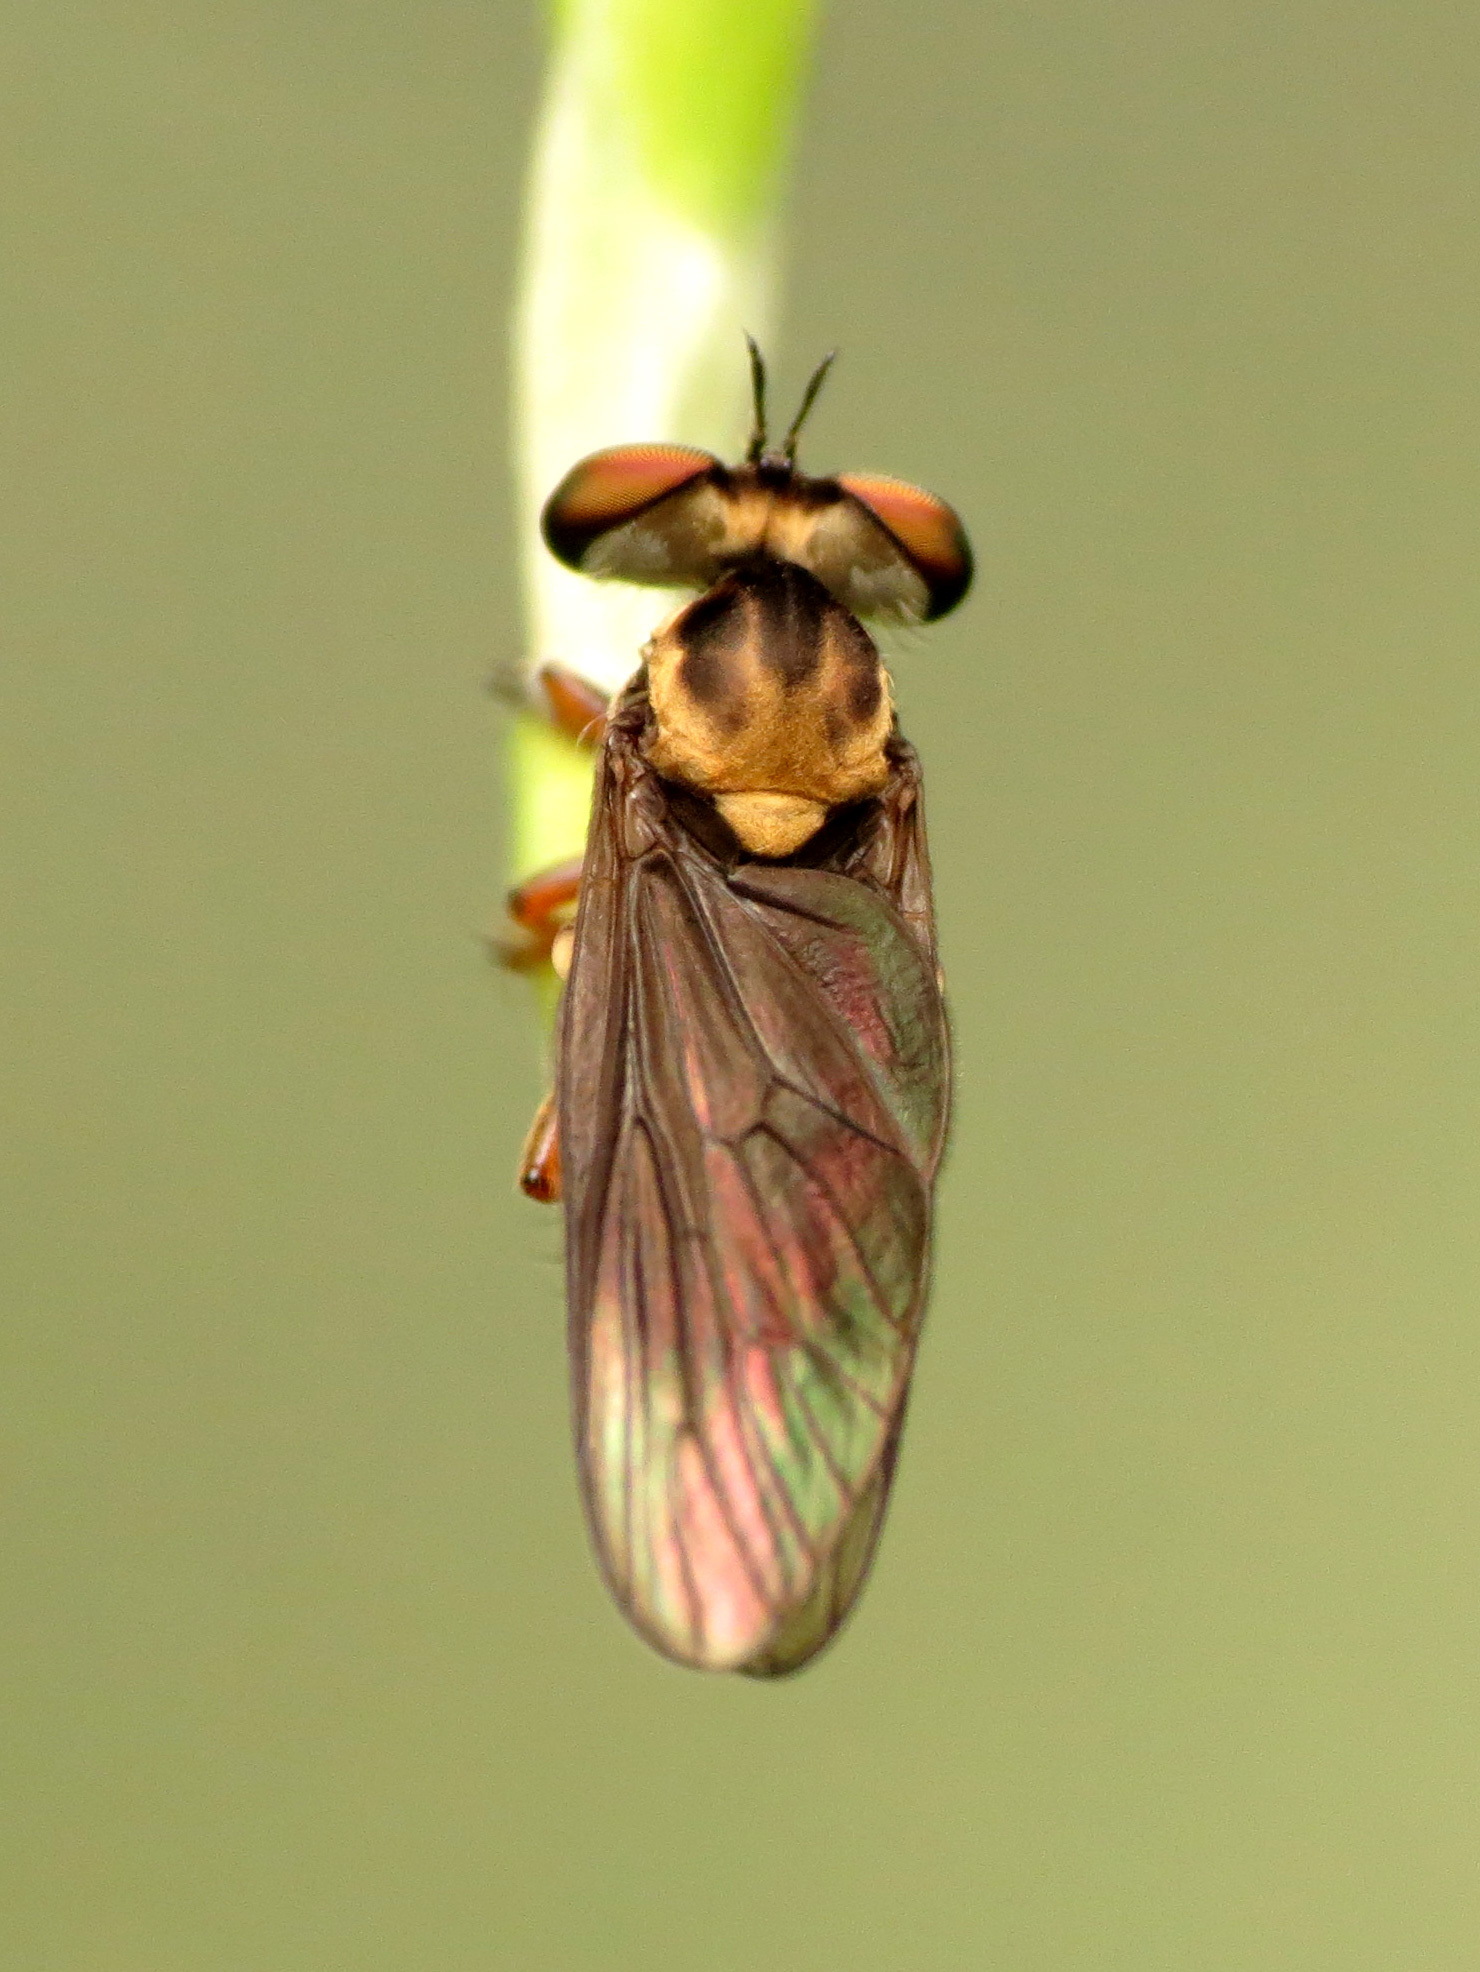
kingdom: Animalia
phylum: Arthropoda
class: Insecta
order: Diptera
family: Asilidae
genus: Holcocephala
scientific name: Holcocephala
